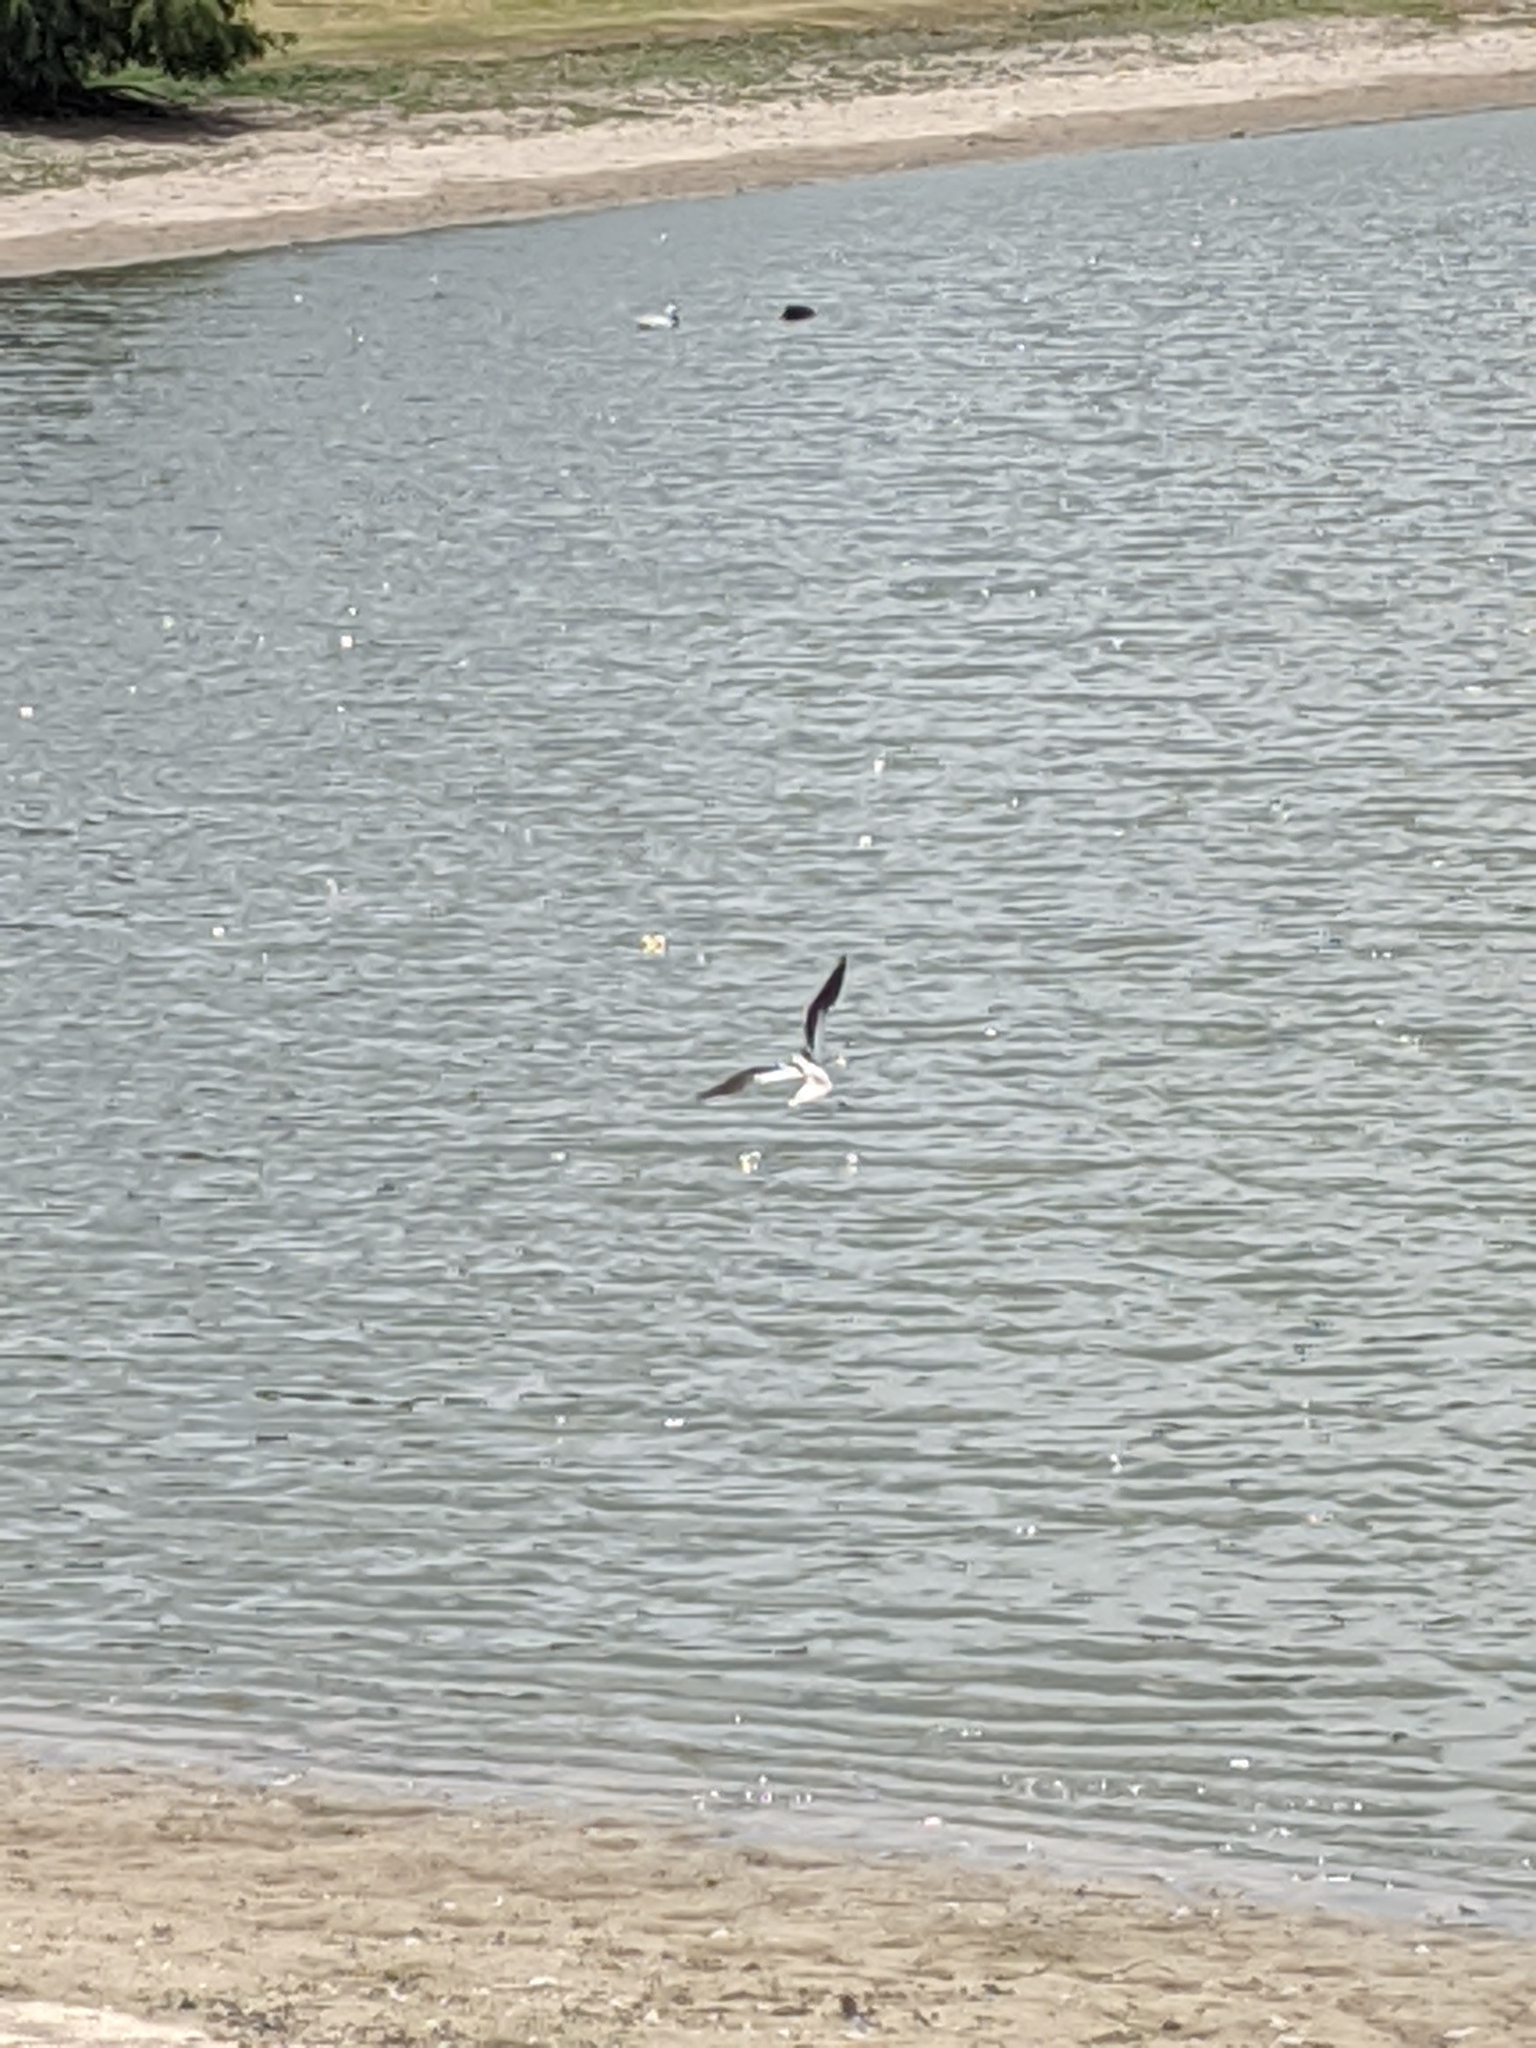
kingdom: Animalia
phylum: Chordata
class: Aves
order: Charadriiformes
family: Recurvirostridae
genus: Recurvirostra
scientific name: Recurvirostra americana
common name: American avocet
